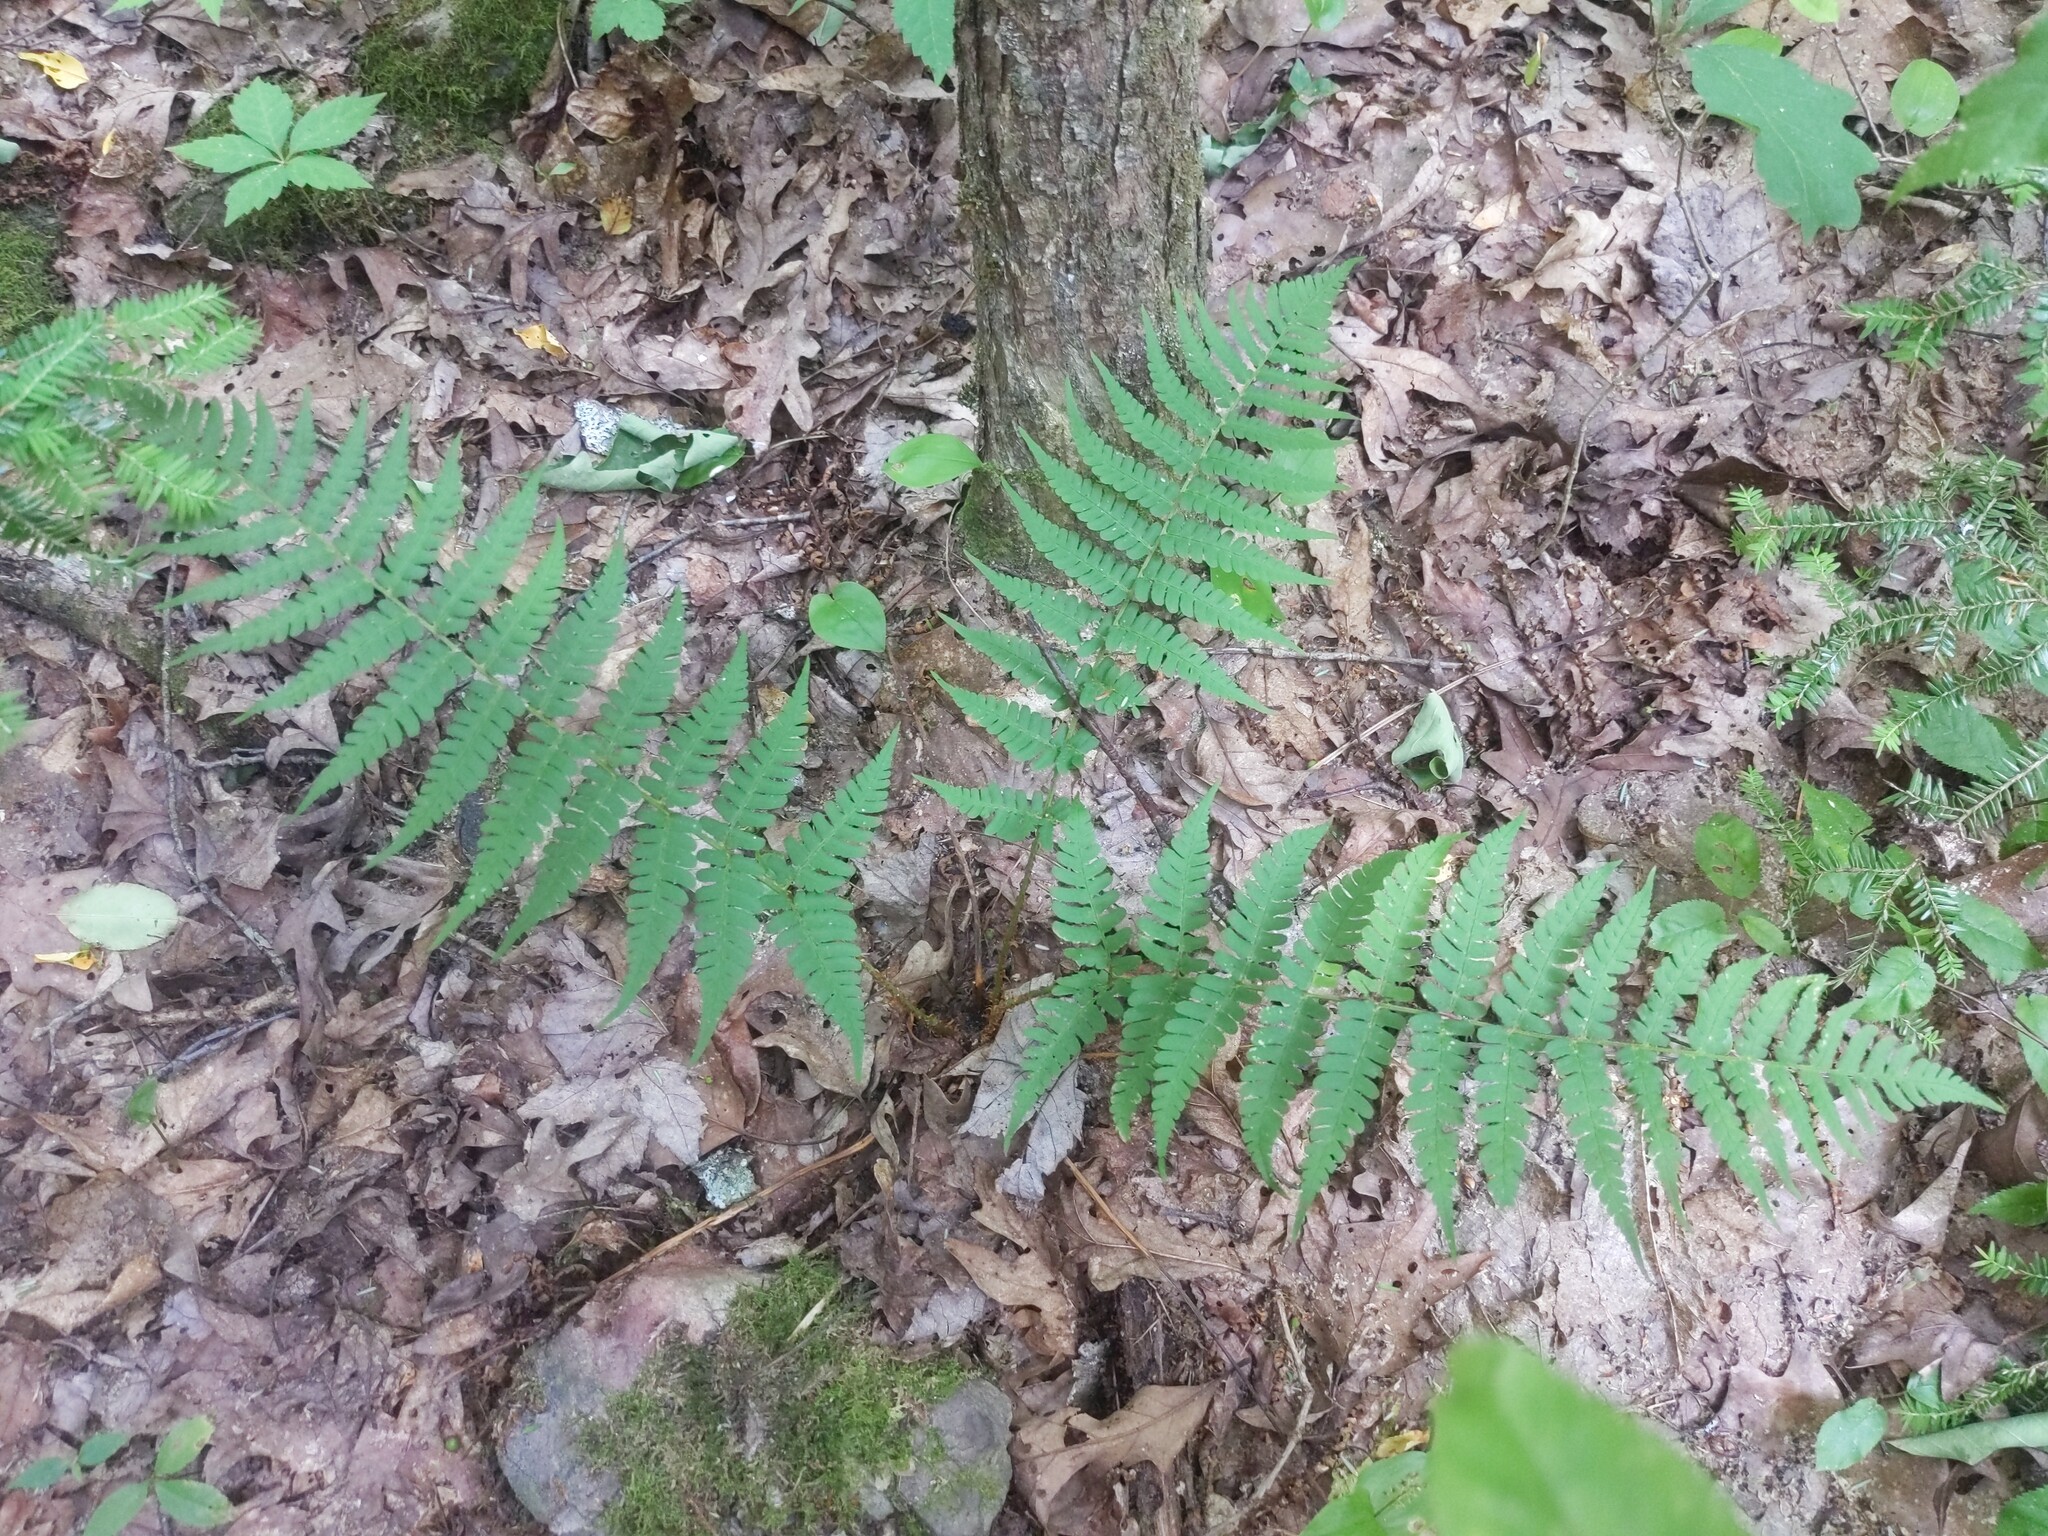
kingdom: Plantae
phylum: Tracheophyta
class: Polypodiopsida
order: Polypodiales
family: Dryopteridaceae
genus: Dryopteris
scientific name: Dryopteris marginalis
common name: Marginal wood fern
